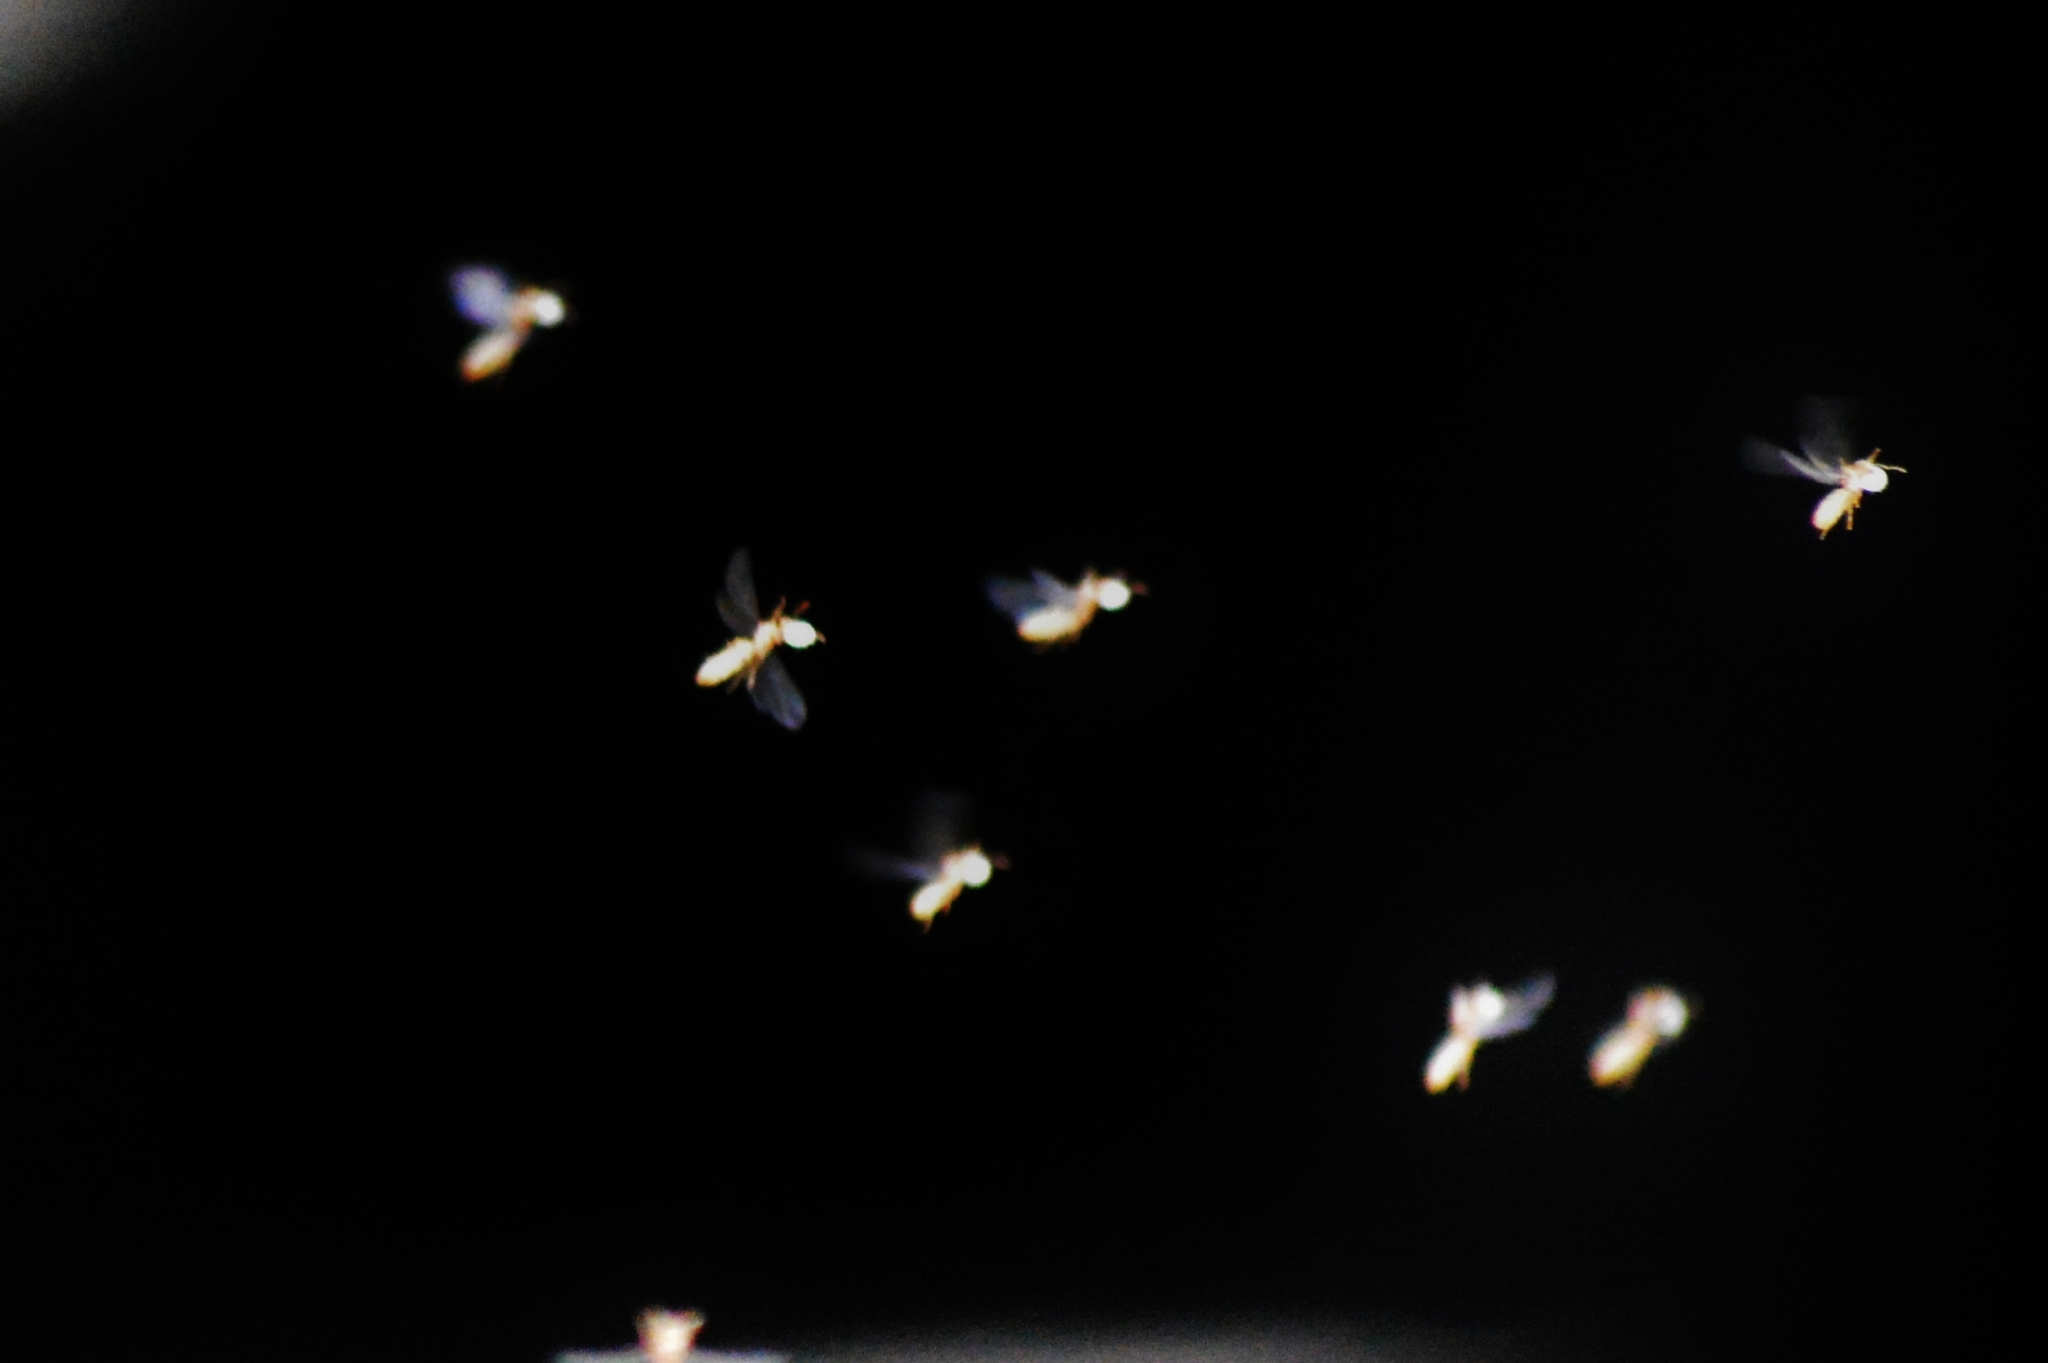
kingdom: Animalia
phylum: Arthropoda
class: Insecta
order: Hymenoptera
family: Formicidae
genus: Acropyga
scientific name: Acropyga
